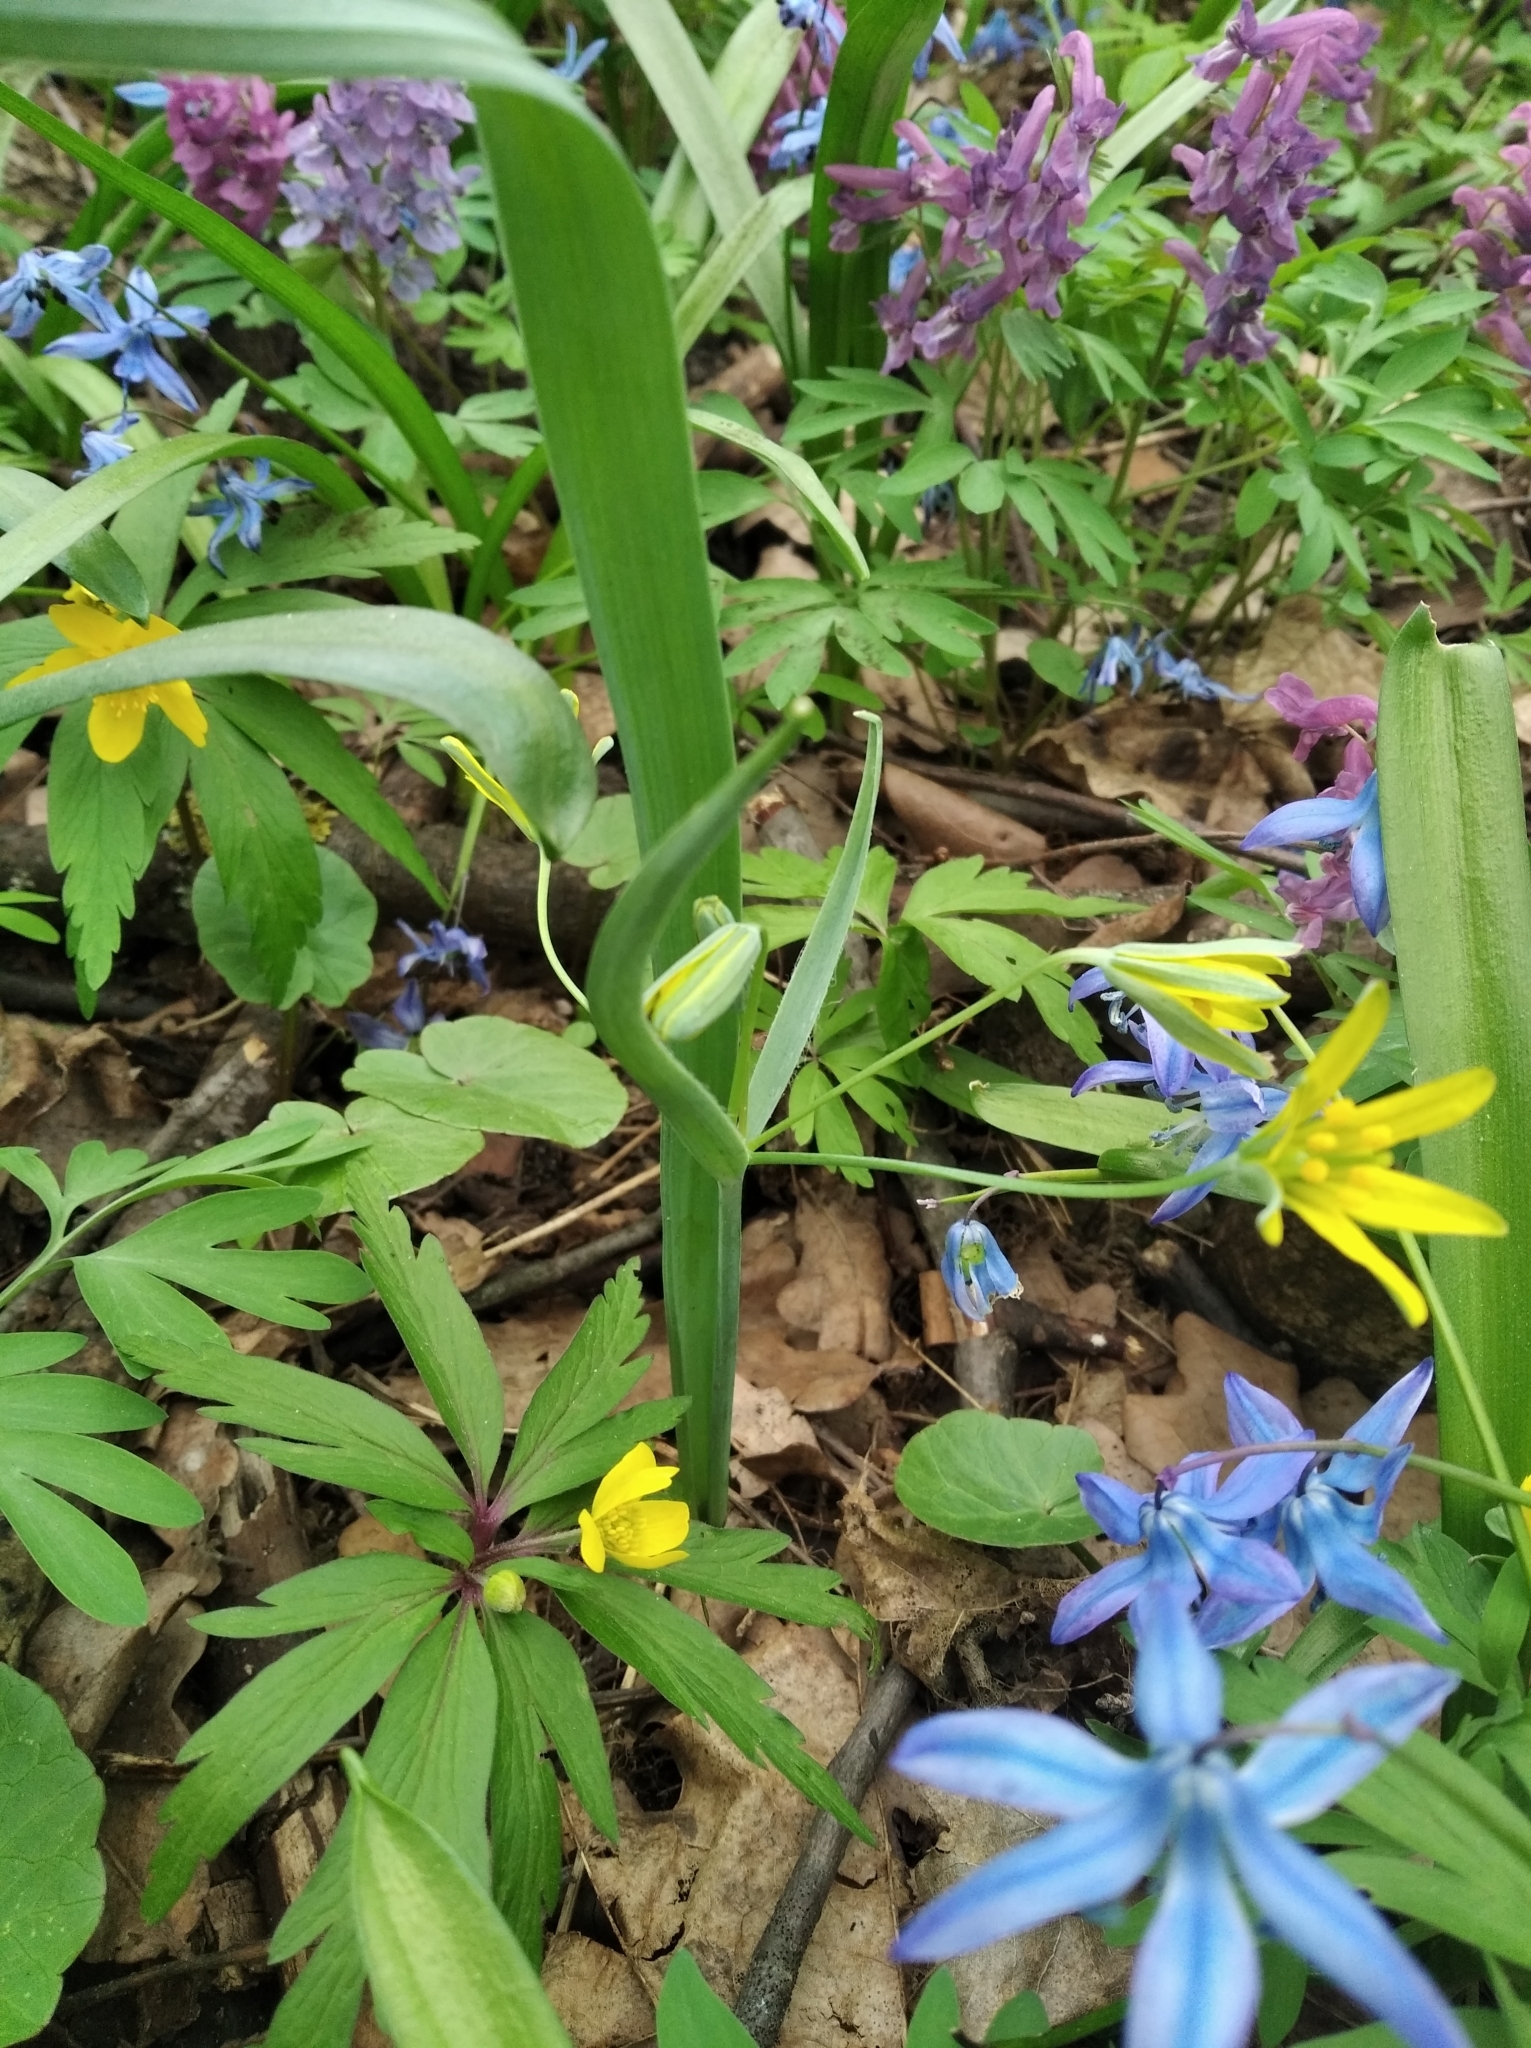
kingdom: Plantae
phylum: Tracheophyta
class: Liliopsida
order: Liliales
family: Liliaceae
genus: Gagea
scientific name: Gagea lutea
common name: Yellow star-of-bethlehem
